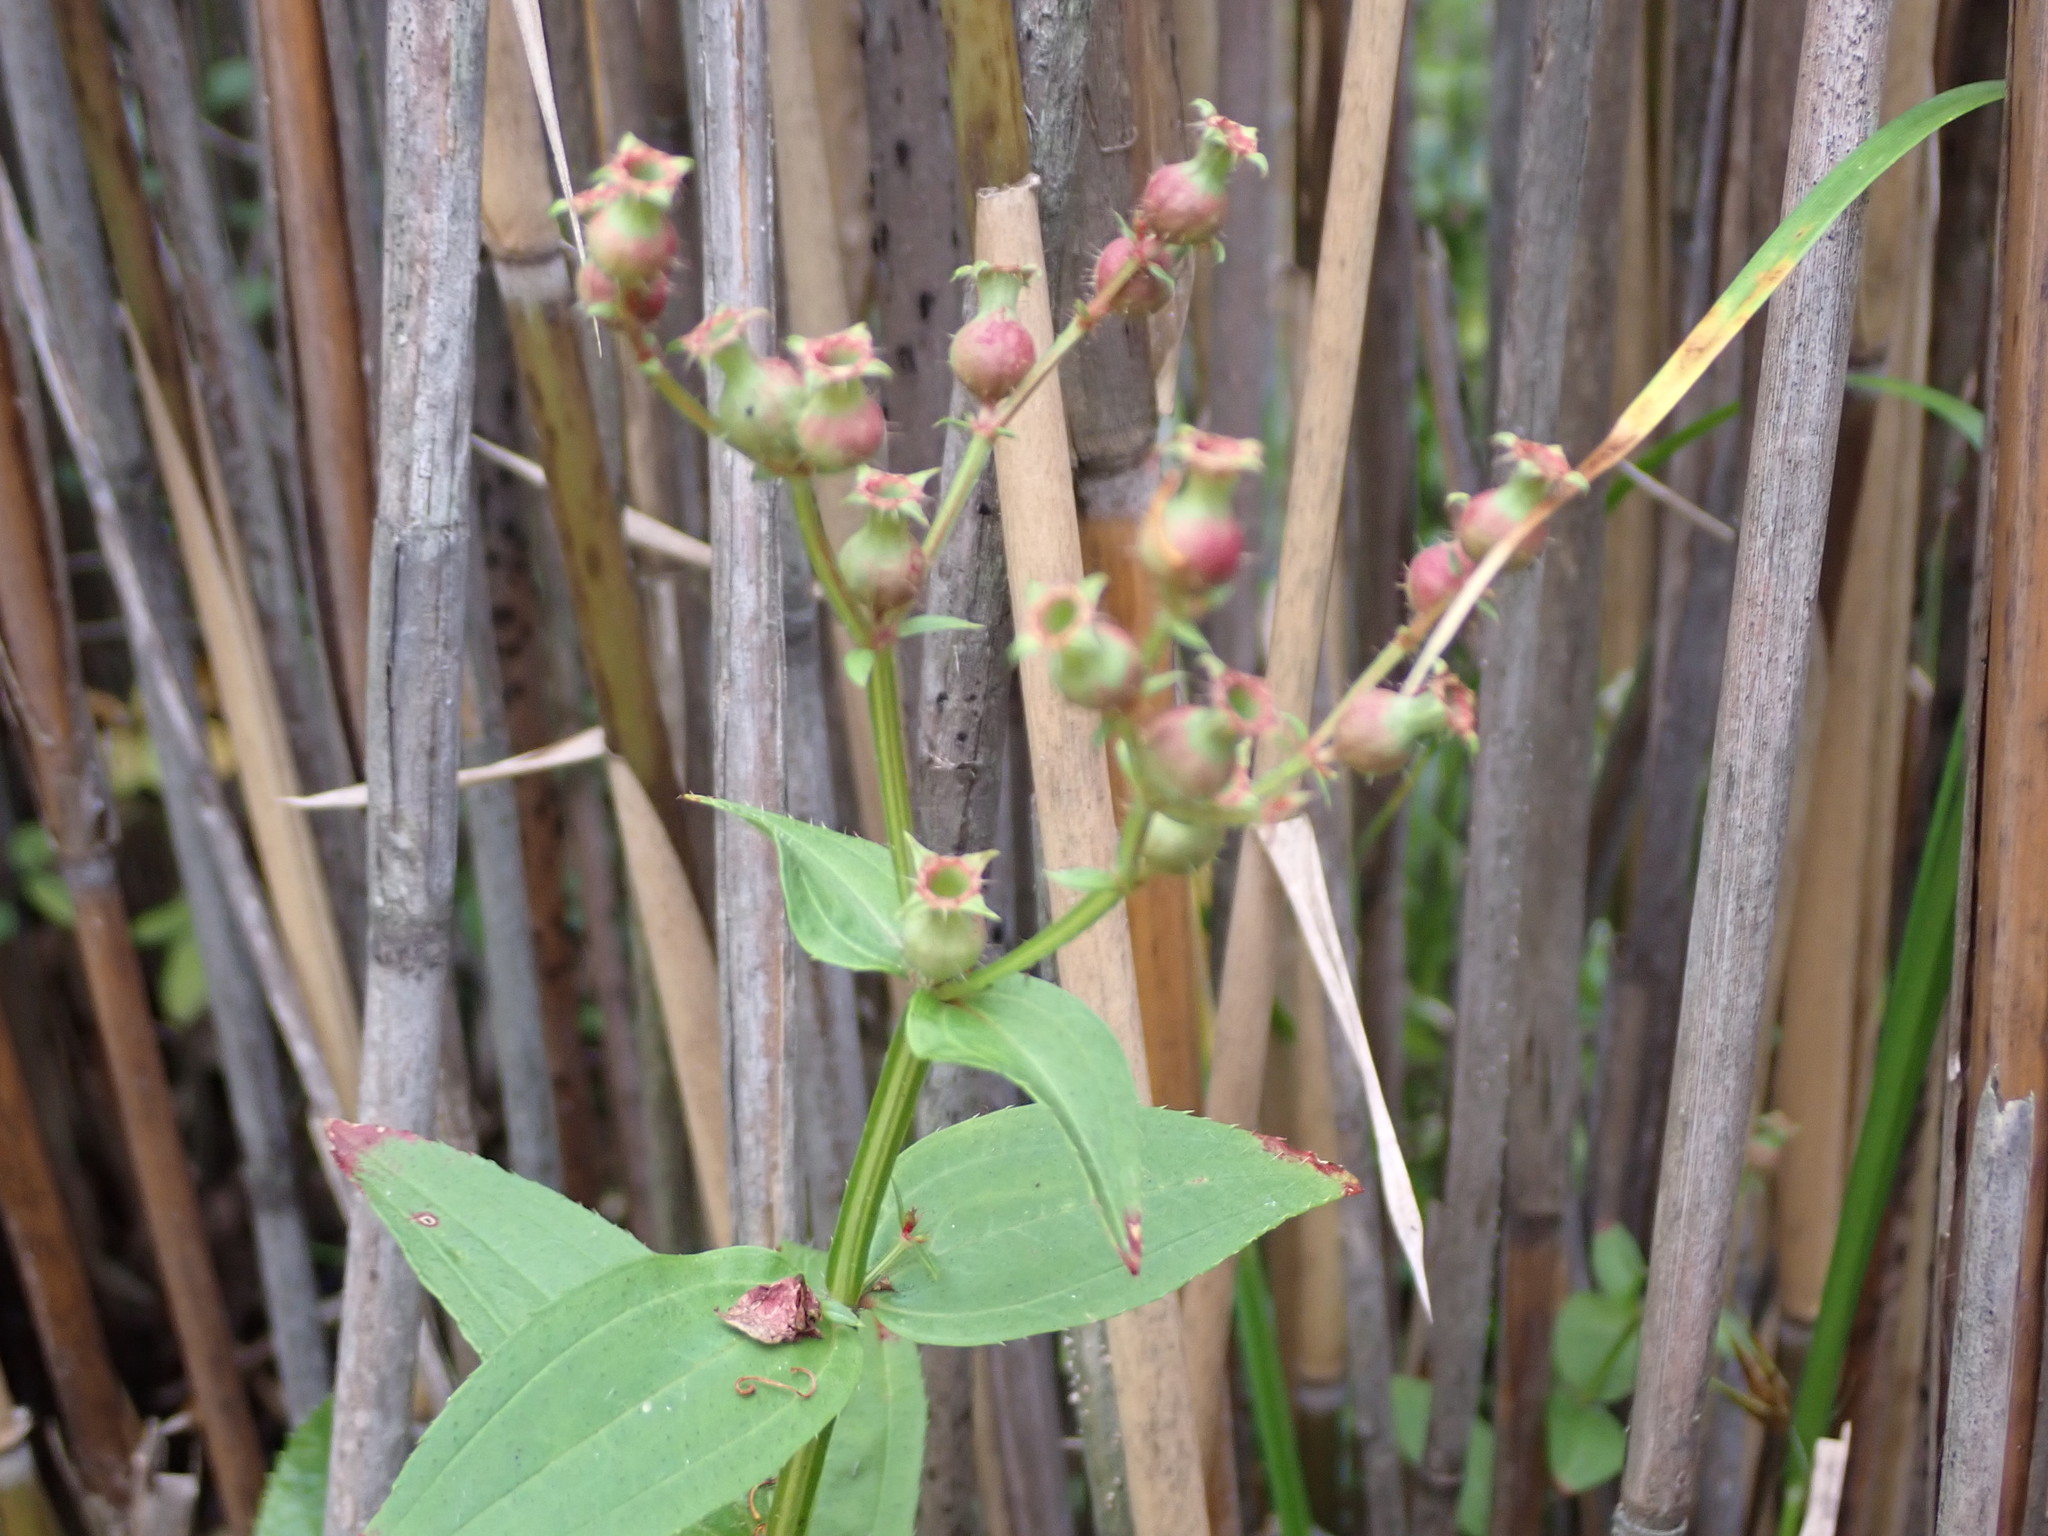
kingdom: Plantae
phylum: Tracheophyta
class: Magnoliopsida
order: Myrtales
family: Melastomataceae
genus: Rhexia
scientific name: Rhexia virginica
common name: Common meadow beauty
